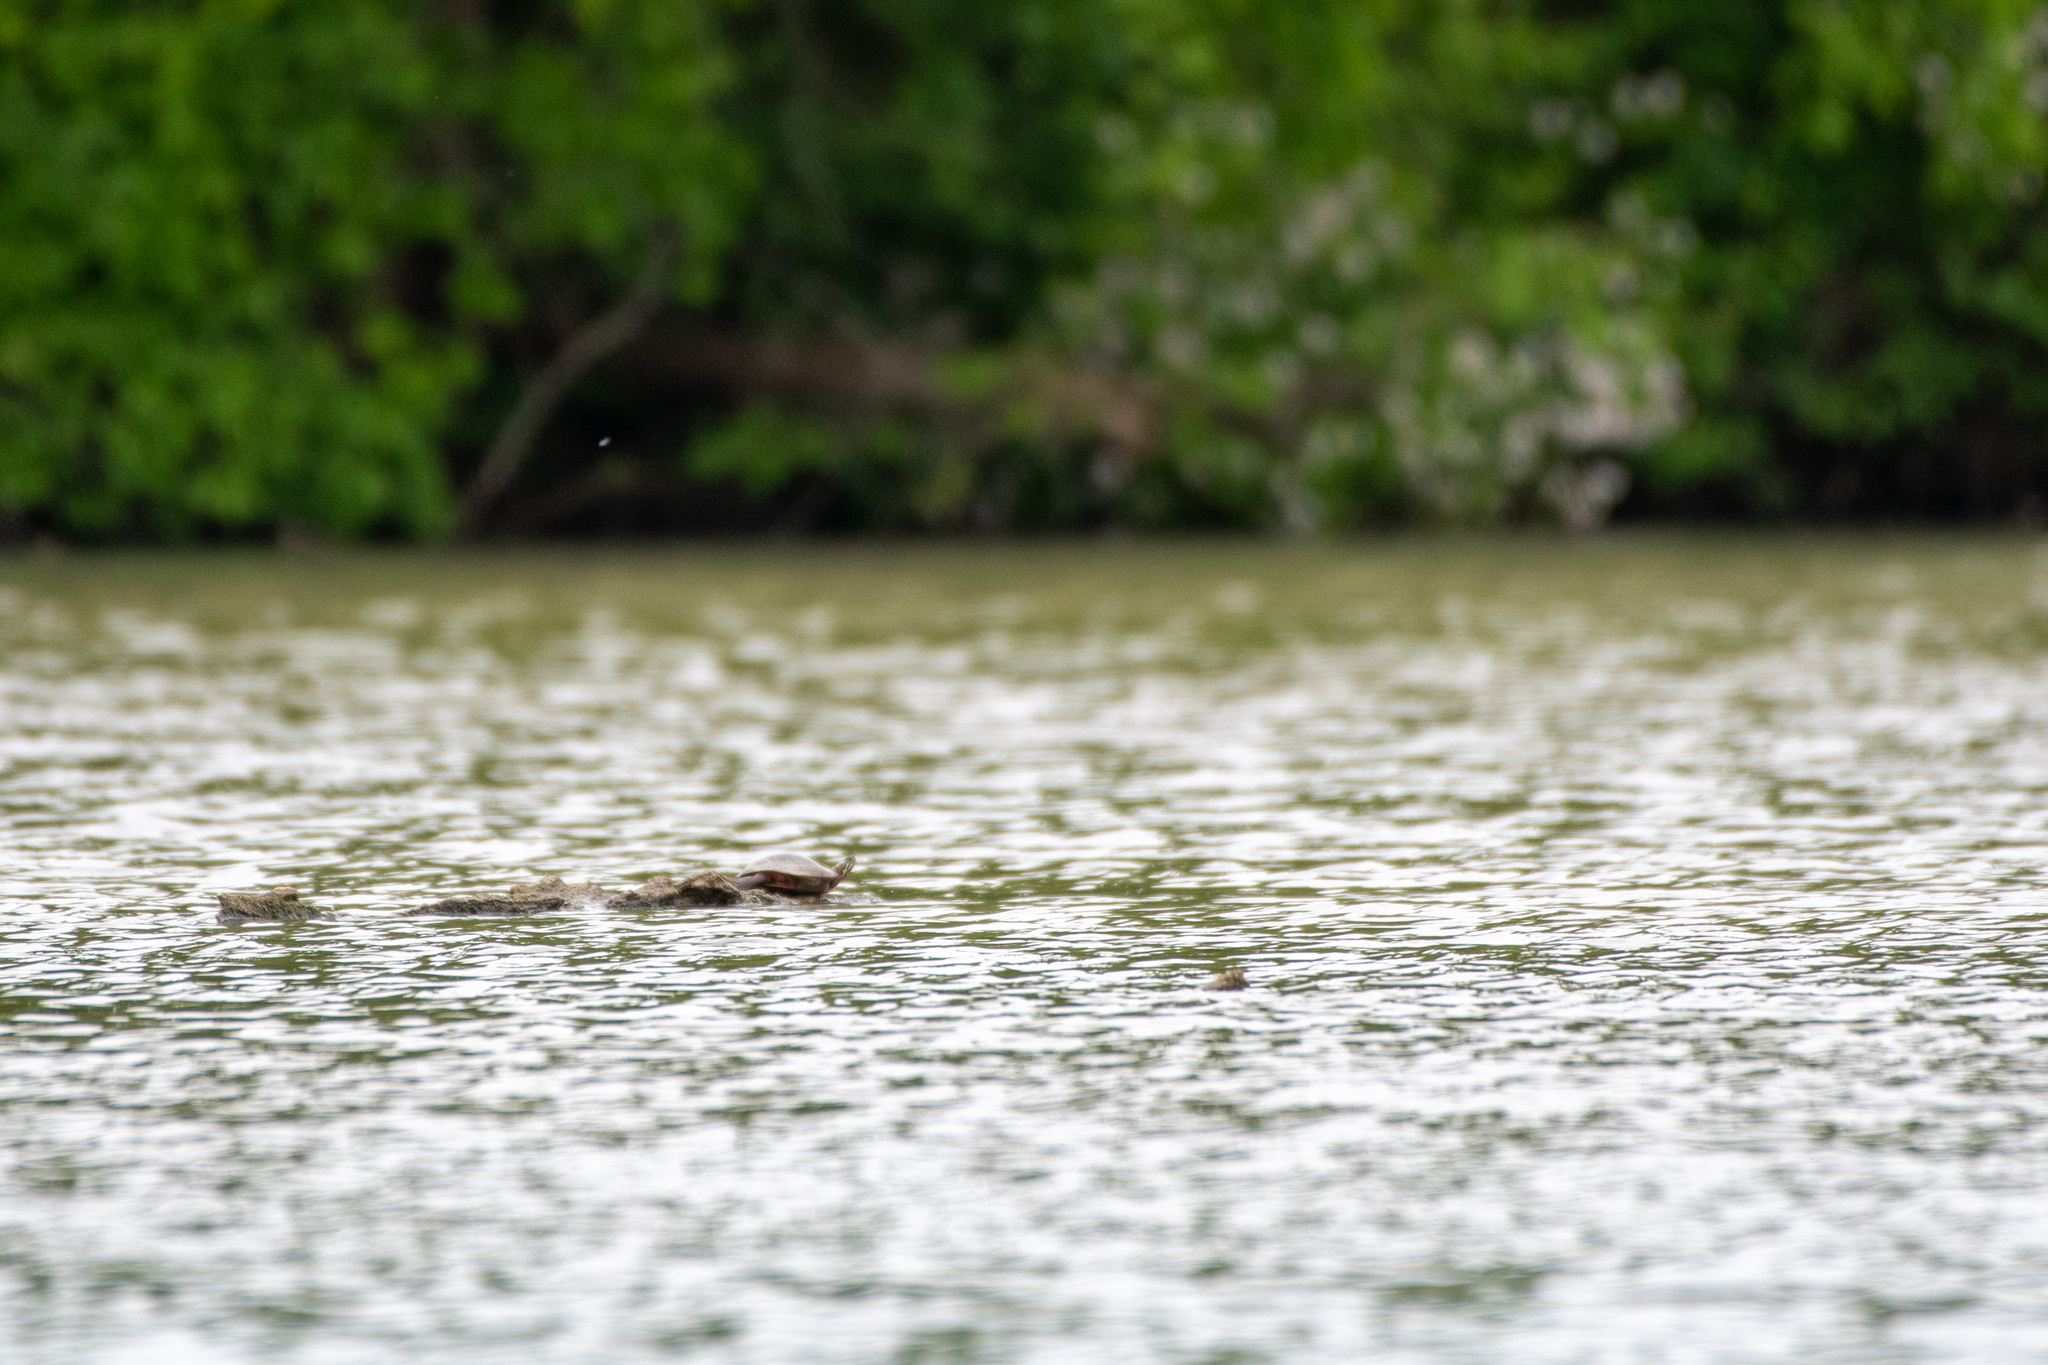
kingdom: Animalia
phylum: Chordata
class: Testudines
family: Emydidae
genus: Chrysemys
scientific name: Chrysemys picta
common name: Painted turtle
